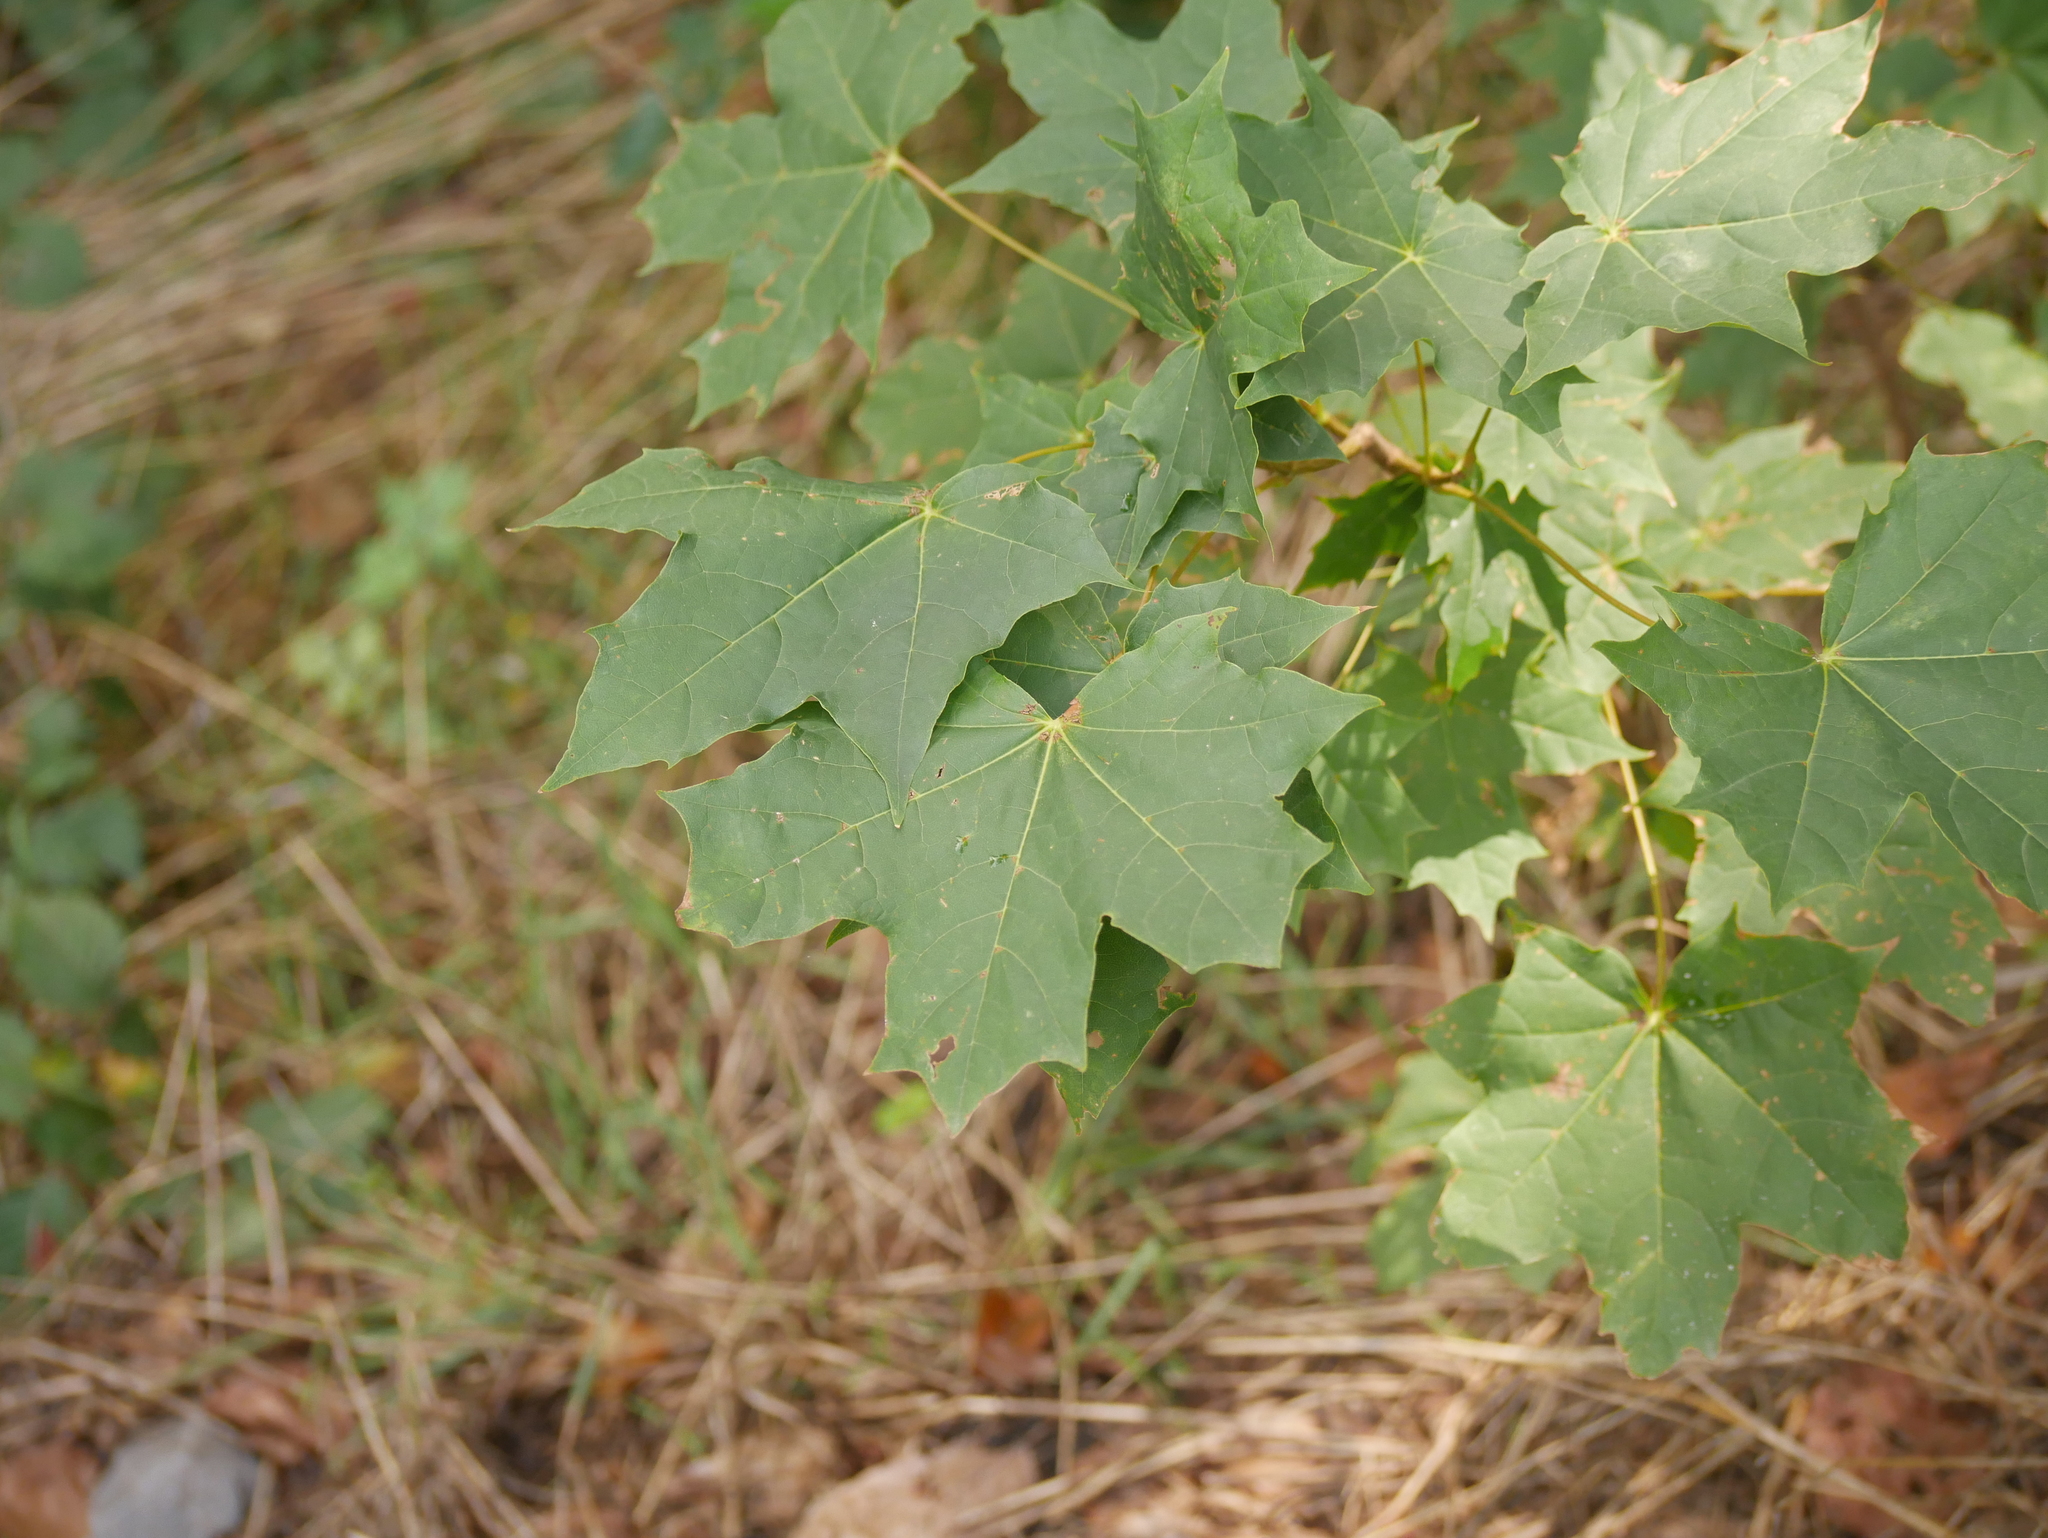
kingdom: Plantae
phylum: Tracheophyta
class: Magnoliopsida
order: Sapindales
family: Sapindaceae
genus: Acer
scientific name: Acer platanoides
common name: Norway maple
